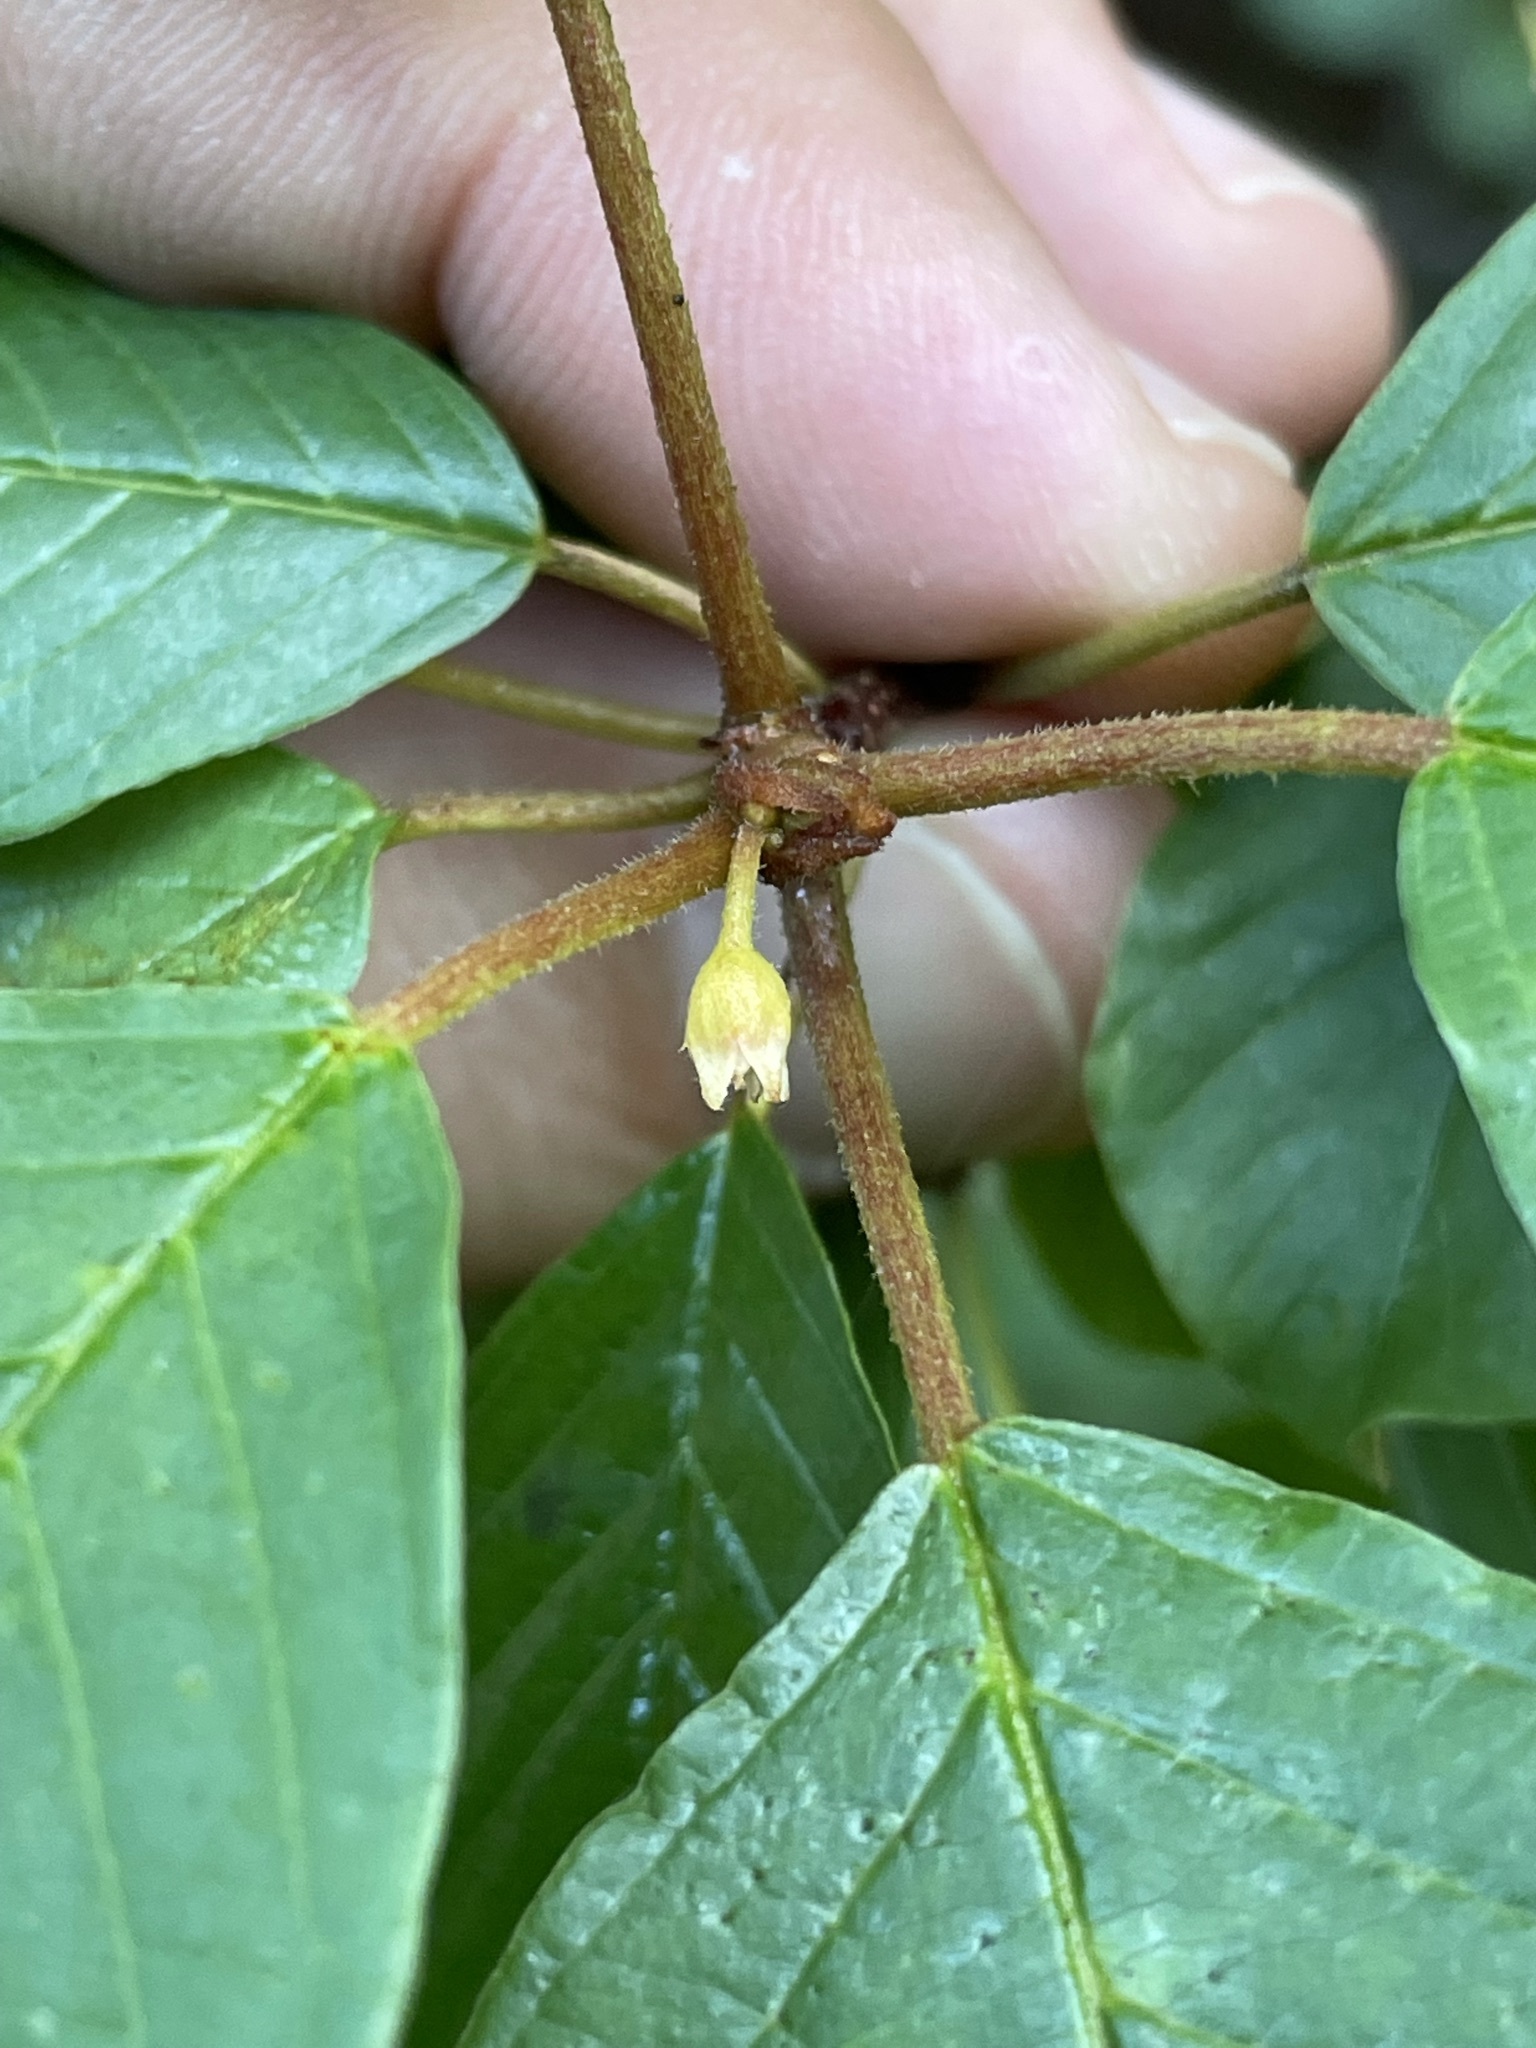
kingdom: Plantae
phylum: Tracheophyta
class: Magnoliopsida
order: Rosales
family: Rhamnaceae
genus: Frangula
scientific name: Frangula alnus
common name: Alder buckthorn
